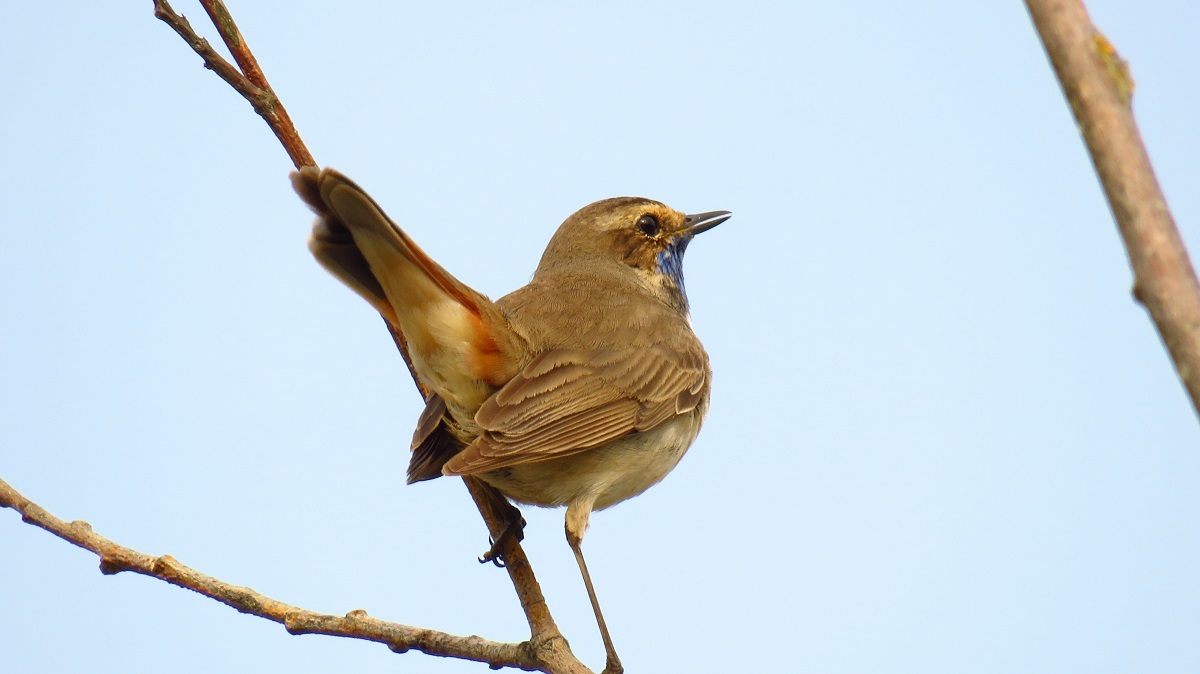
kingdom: Animalia
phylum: Chordata
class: Aves
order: Passeriformes
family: Muscicapidae
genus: Luscinia
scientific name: Luscinia svecica
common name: Bluethroat
